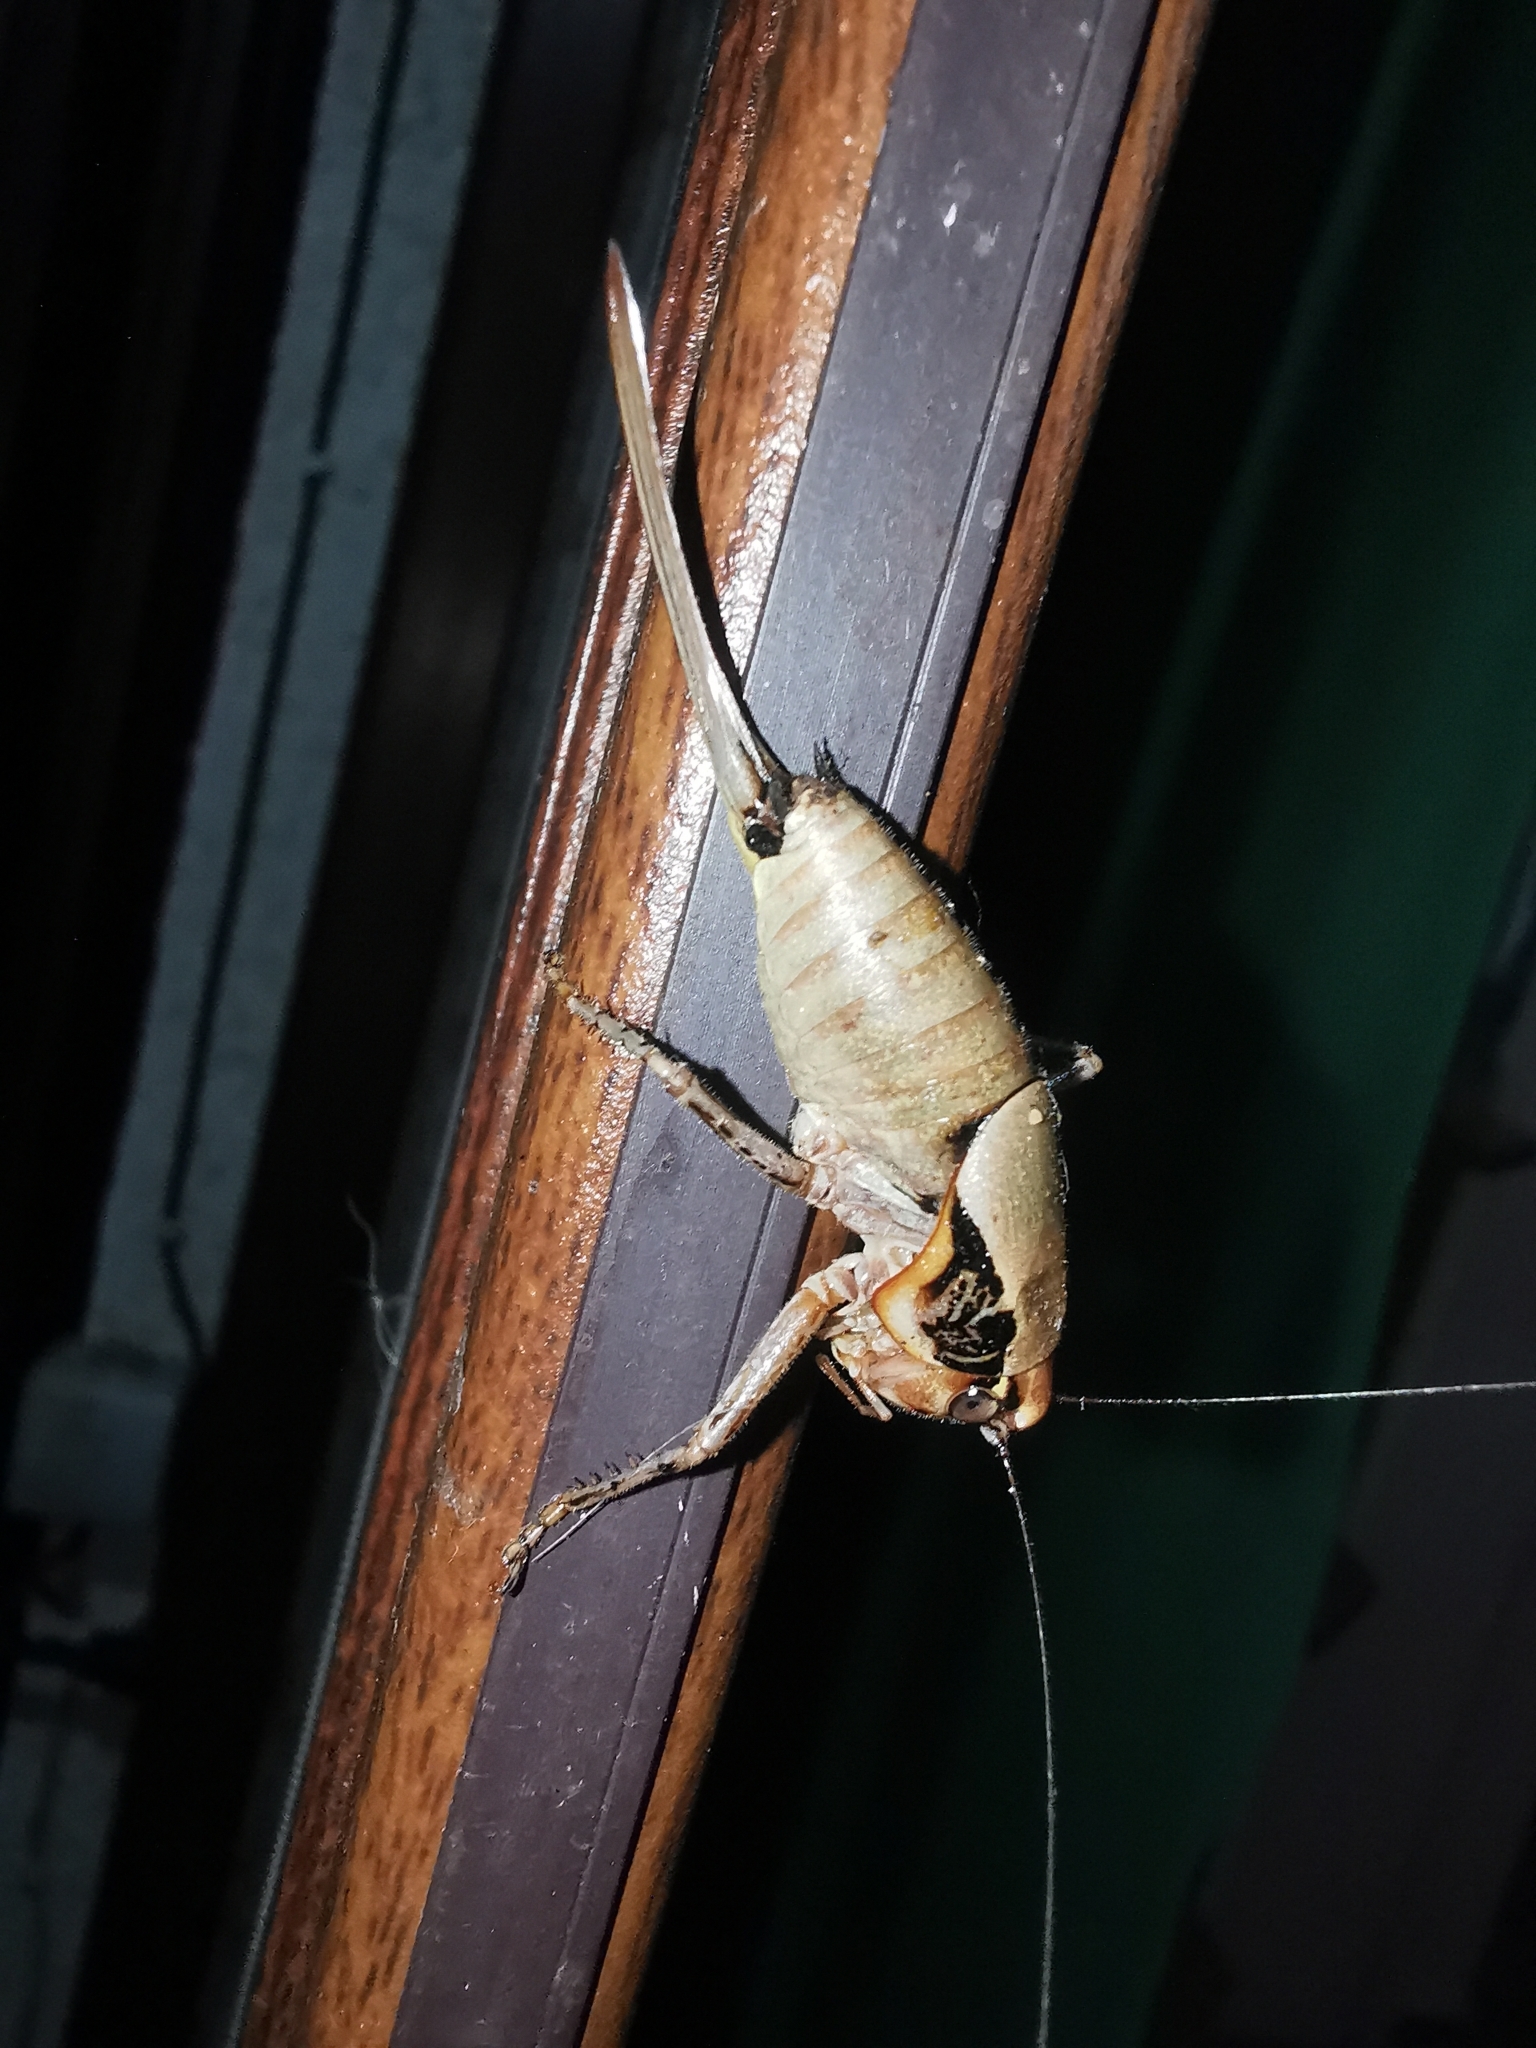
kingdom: Animalia
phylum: Arthropoda
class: Insecta
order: Orthoptera
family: Tettigoniidae
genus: Eupholidoptera
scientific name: Eupholidoptera megastyla
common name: Greek marbled bush-cricket
